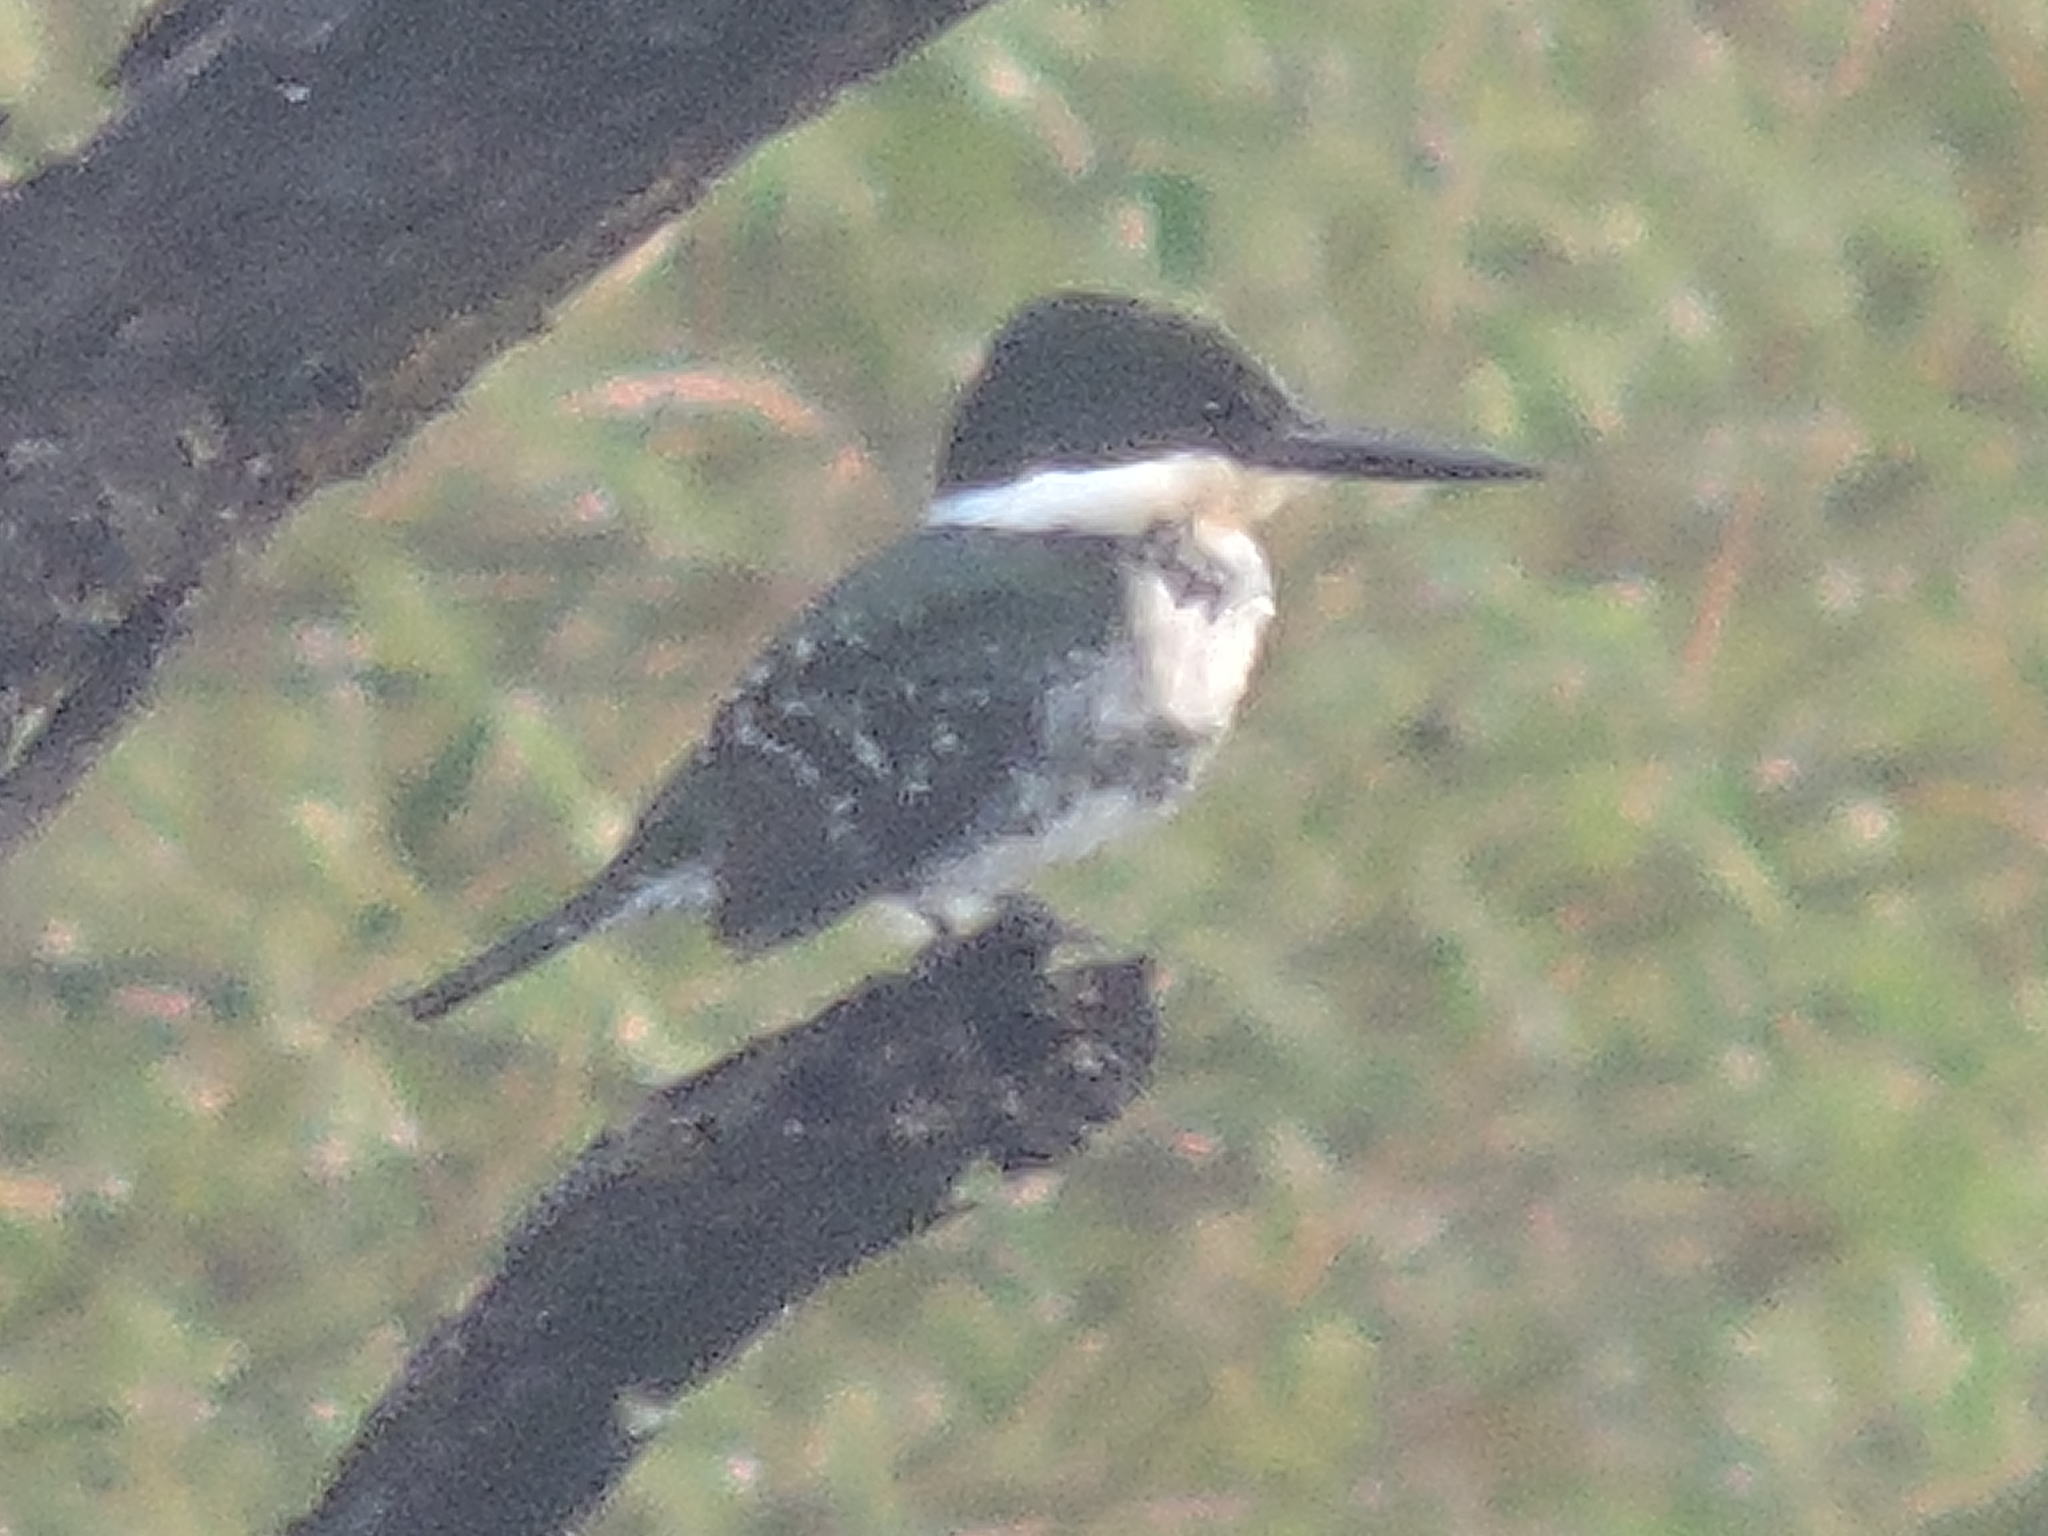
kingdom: Animalia
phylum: Chordata
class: Aves
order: Coraciiformes
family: Alcedinidae
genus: Chloroceryle
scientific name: Chloroceryle americana
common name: Green kingfisher
